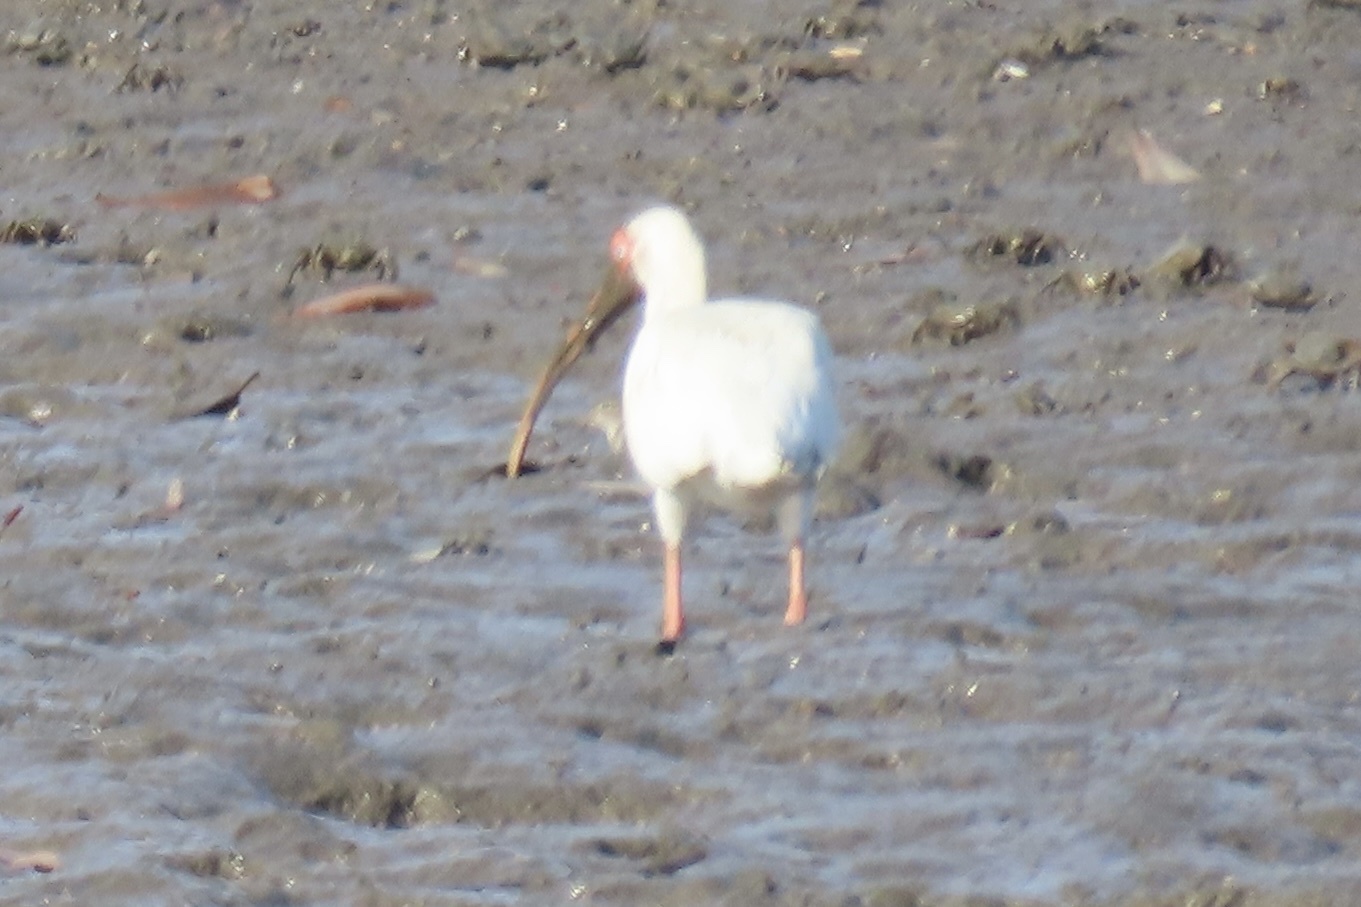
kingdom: Animalia
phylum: Chordata
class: Aves
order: Pelecaniformes
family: Threskiornithidae
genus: Eudocimus
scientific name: Eudocimus albus
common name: White ibis
